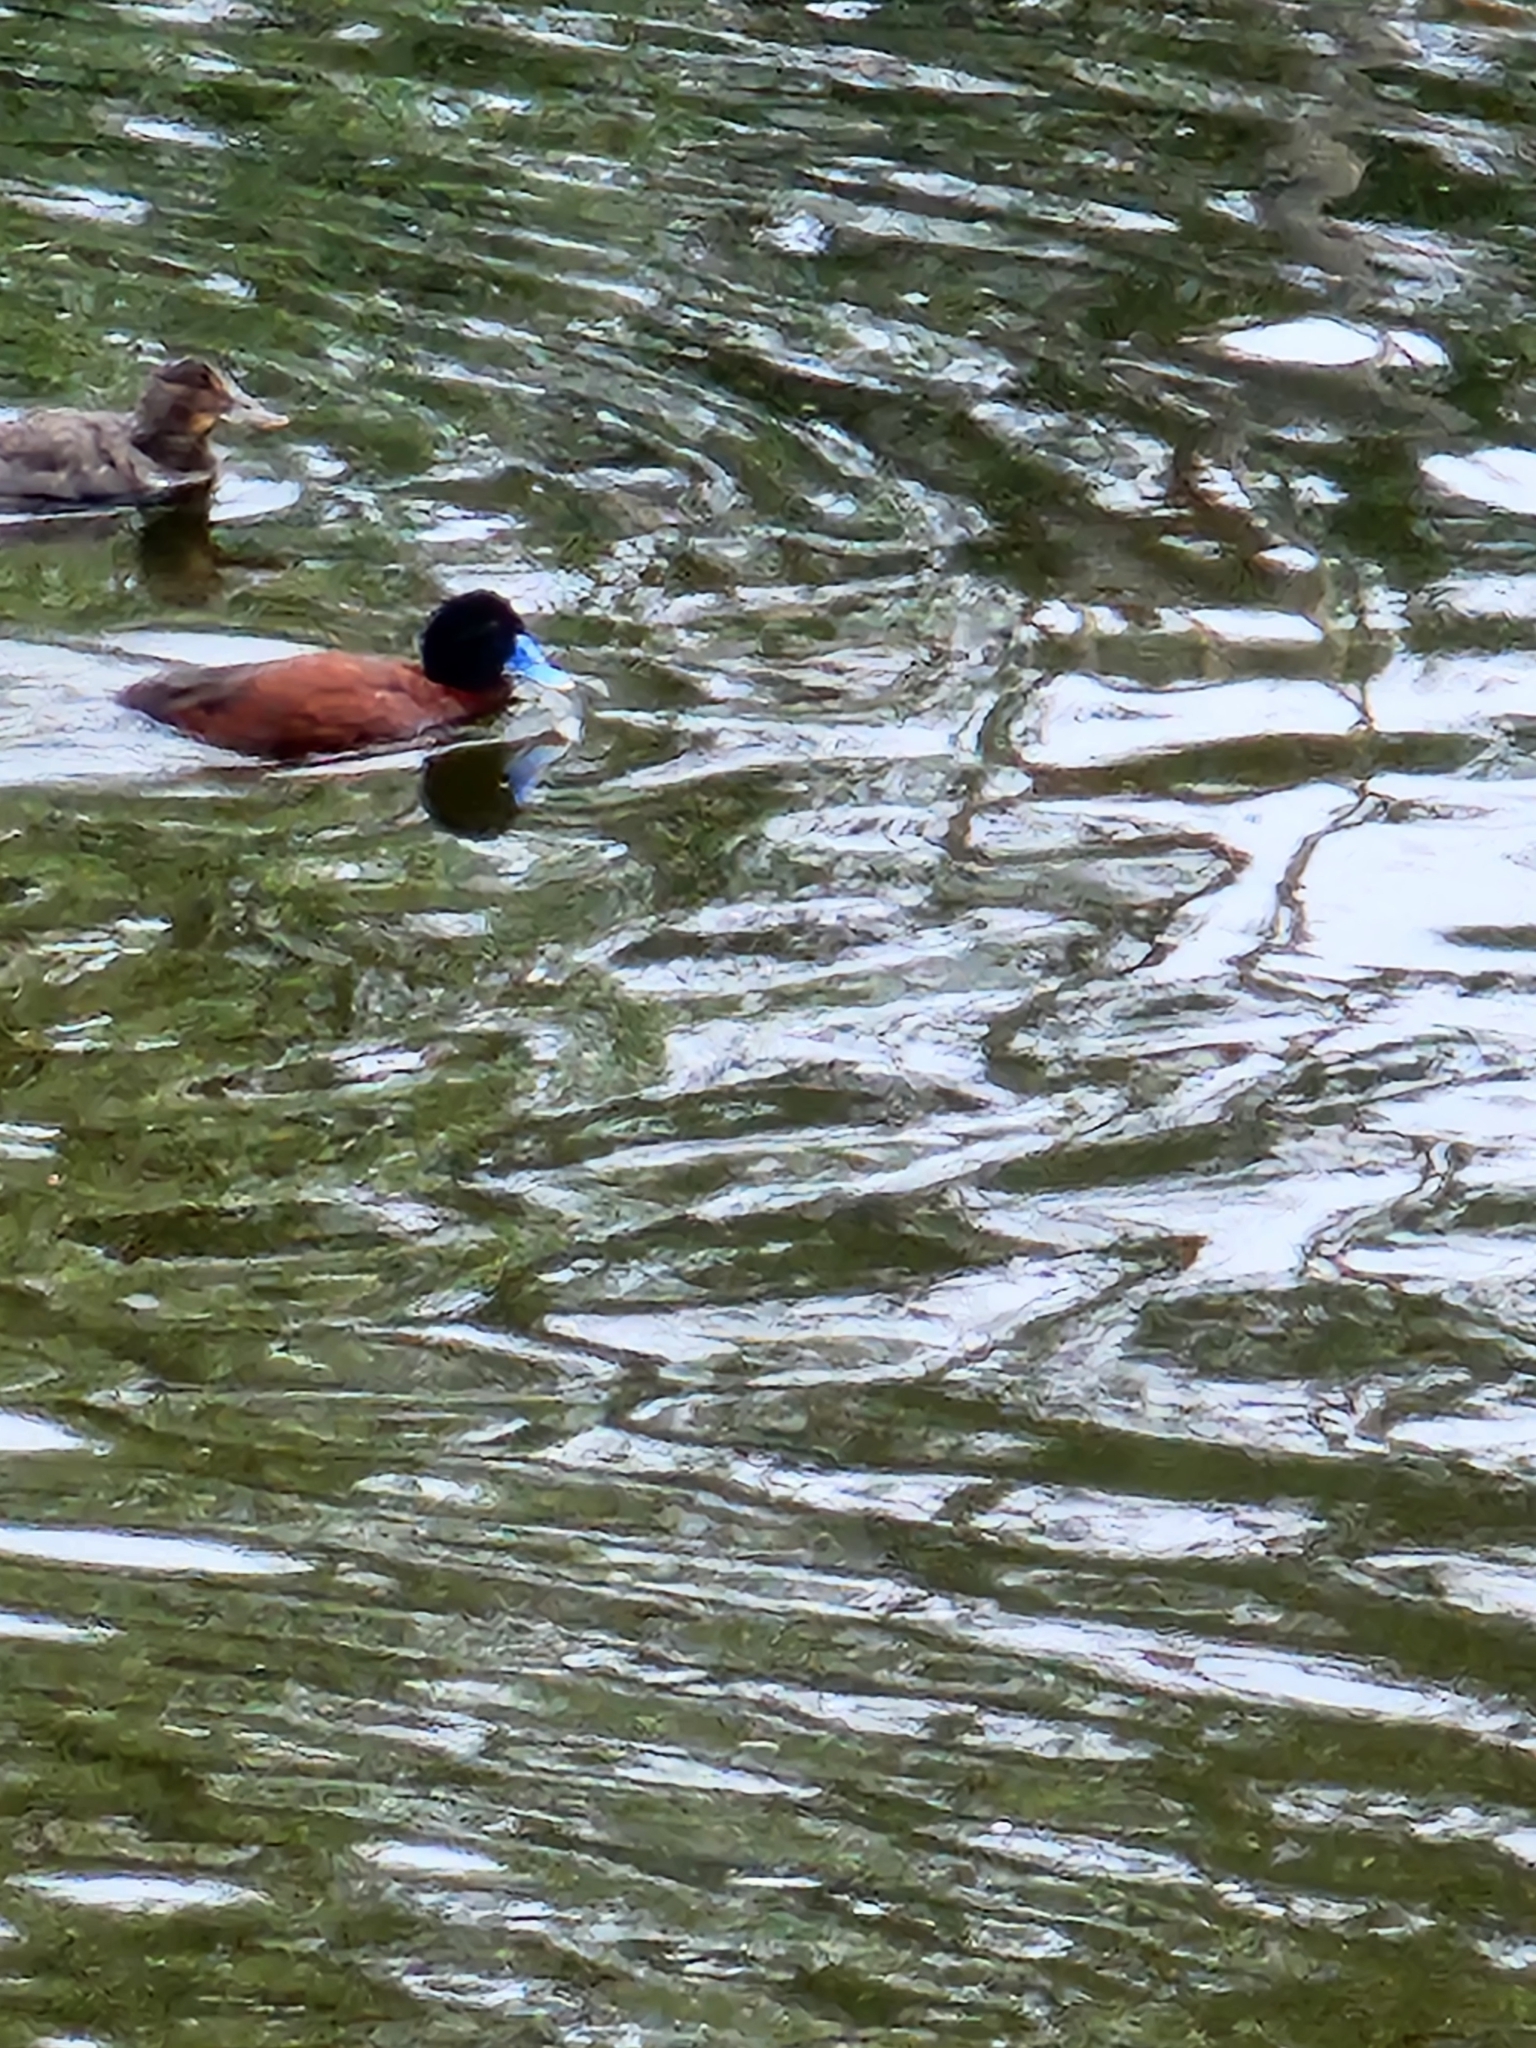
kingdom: Animalia
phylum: Chordata
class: Aves
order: Anseriformes
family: Anatidae
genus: Oxyura
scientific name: Oxyura australis
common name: Blue-billed duck
